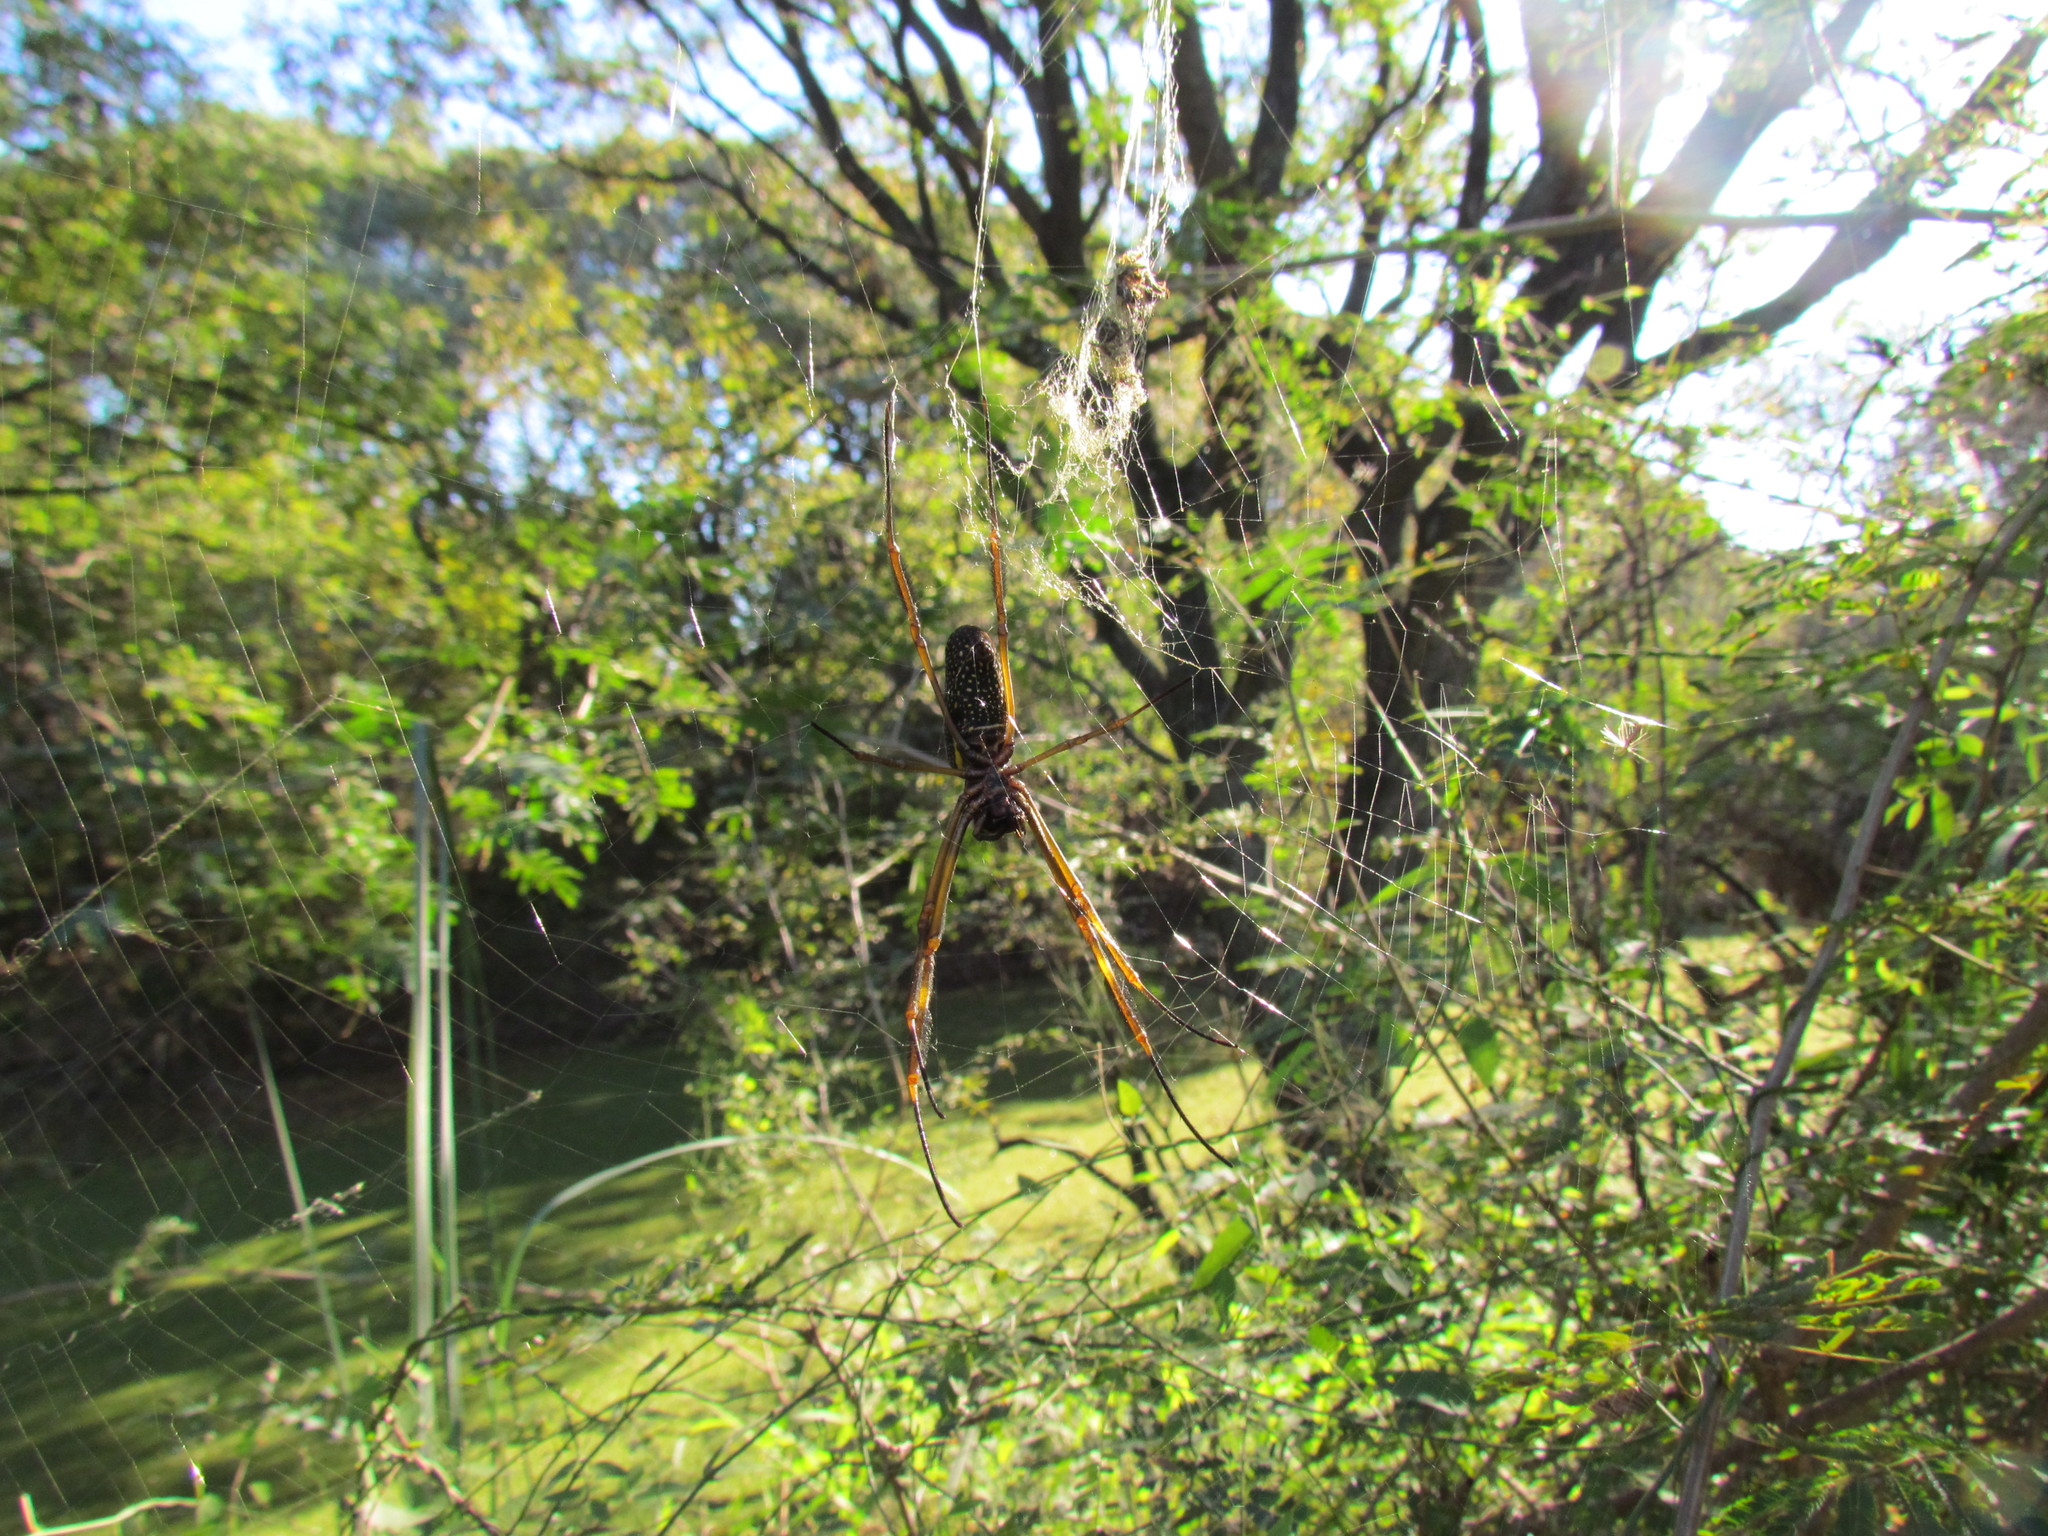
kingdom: Animalia
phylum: Arthropoda
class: Arachnida
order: Araneae
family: Araneidae
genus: Trichonephila
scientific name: Trichonephila clavipes
